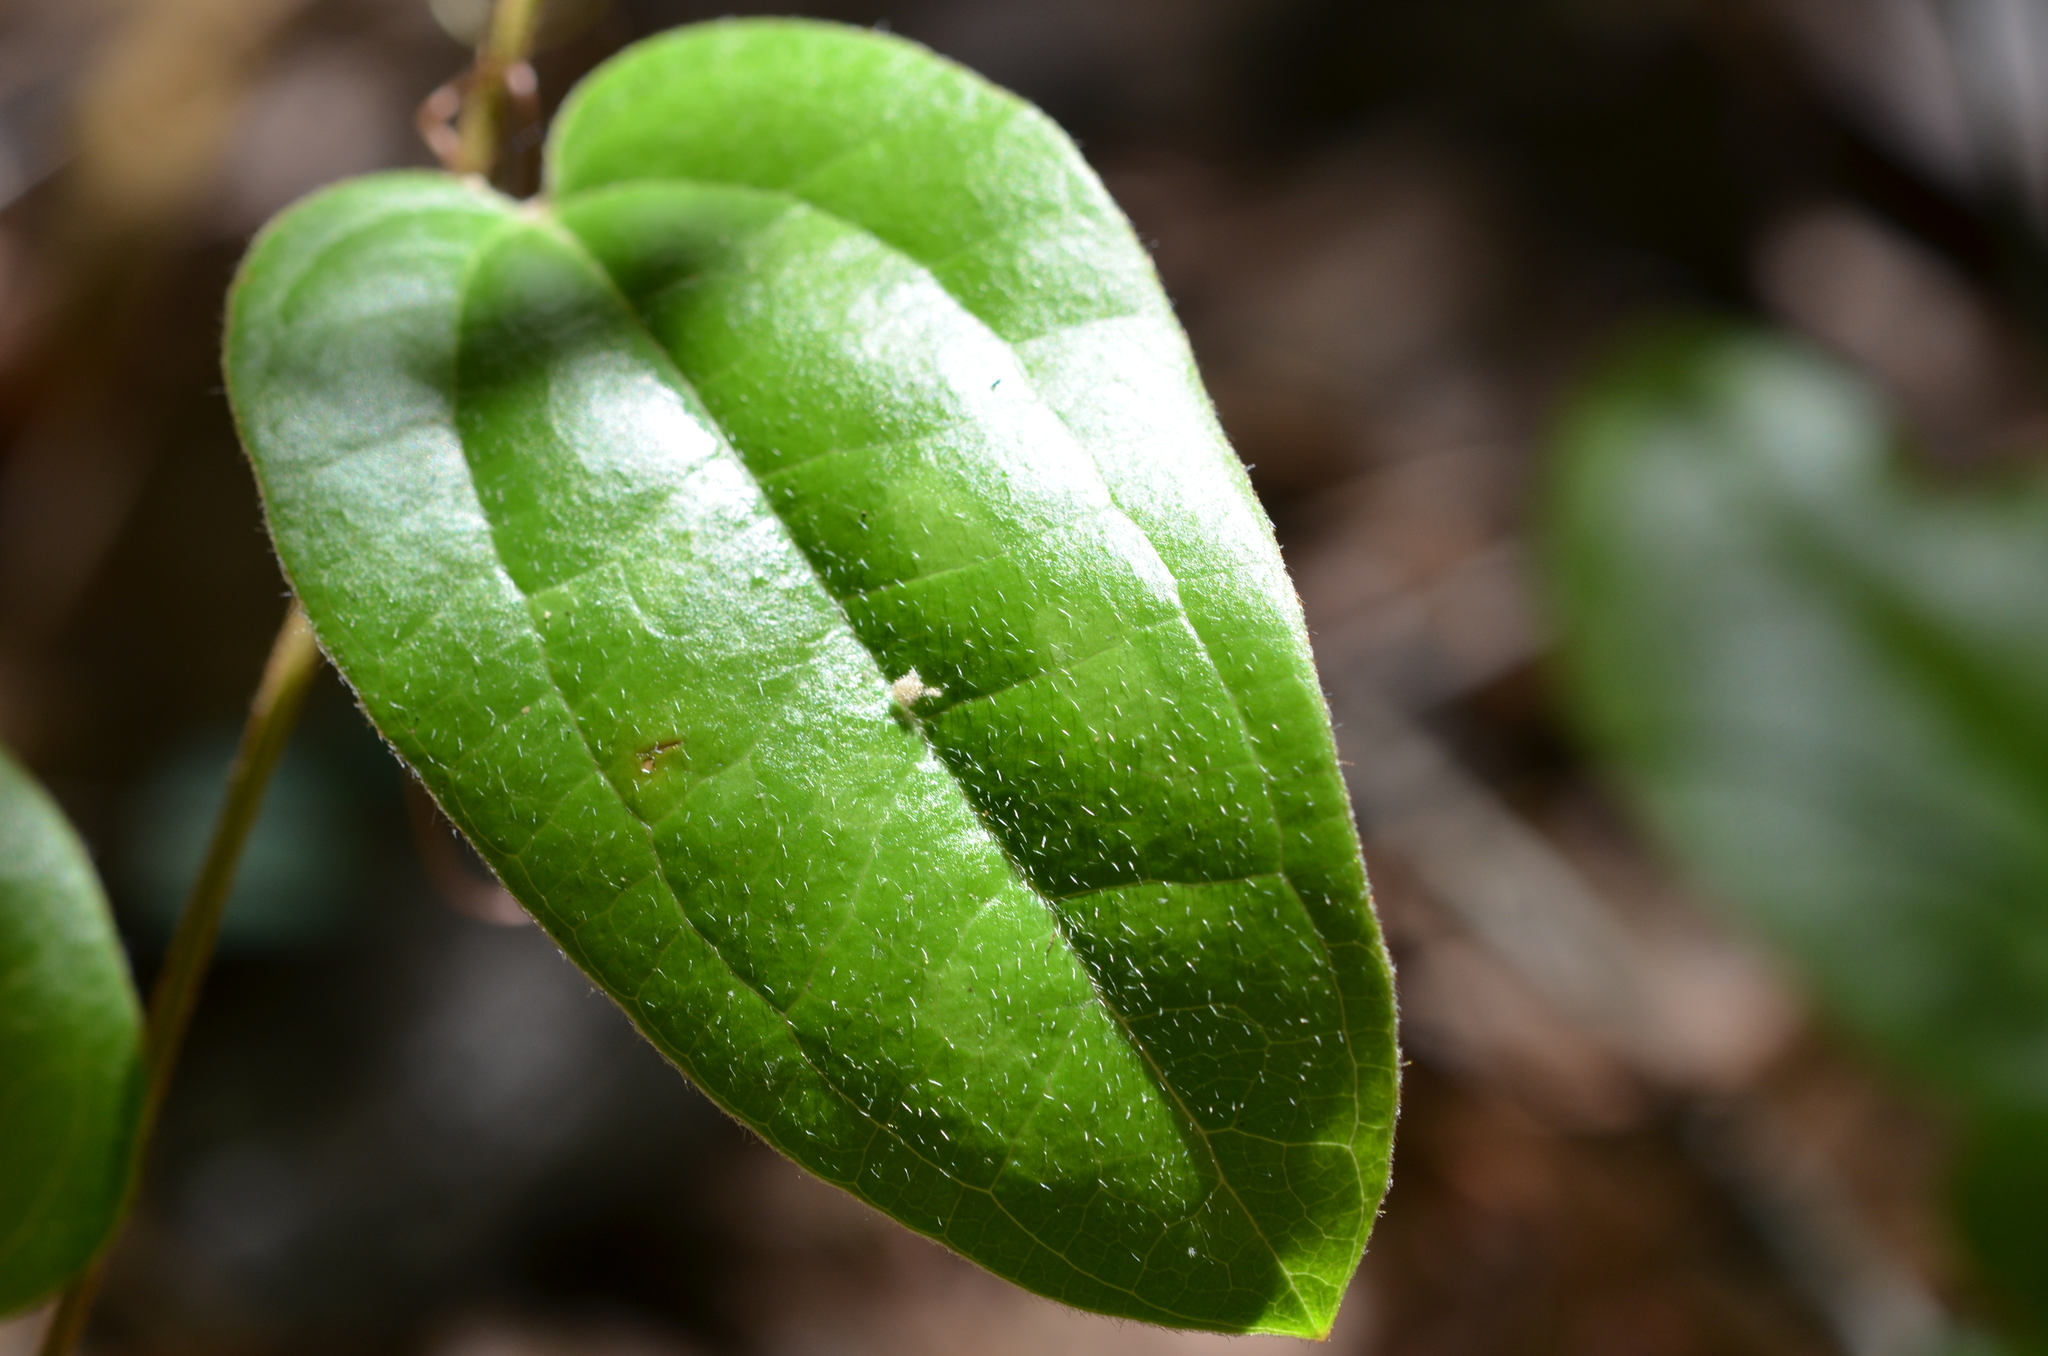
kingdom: Plantae
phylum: Tracheophyta
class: Liliopsida
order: Liliales
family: Smilacaceae
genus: Smilax
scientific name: Smilax pumila
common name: Sarsaparilla-vine
